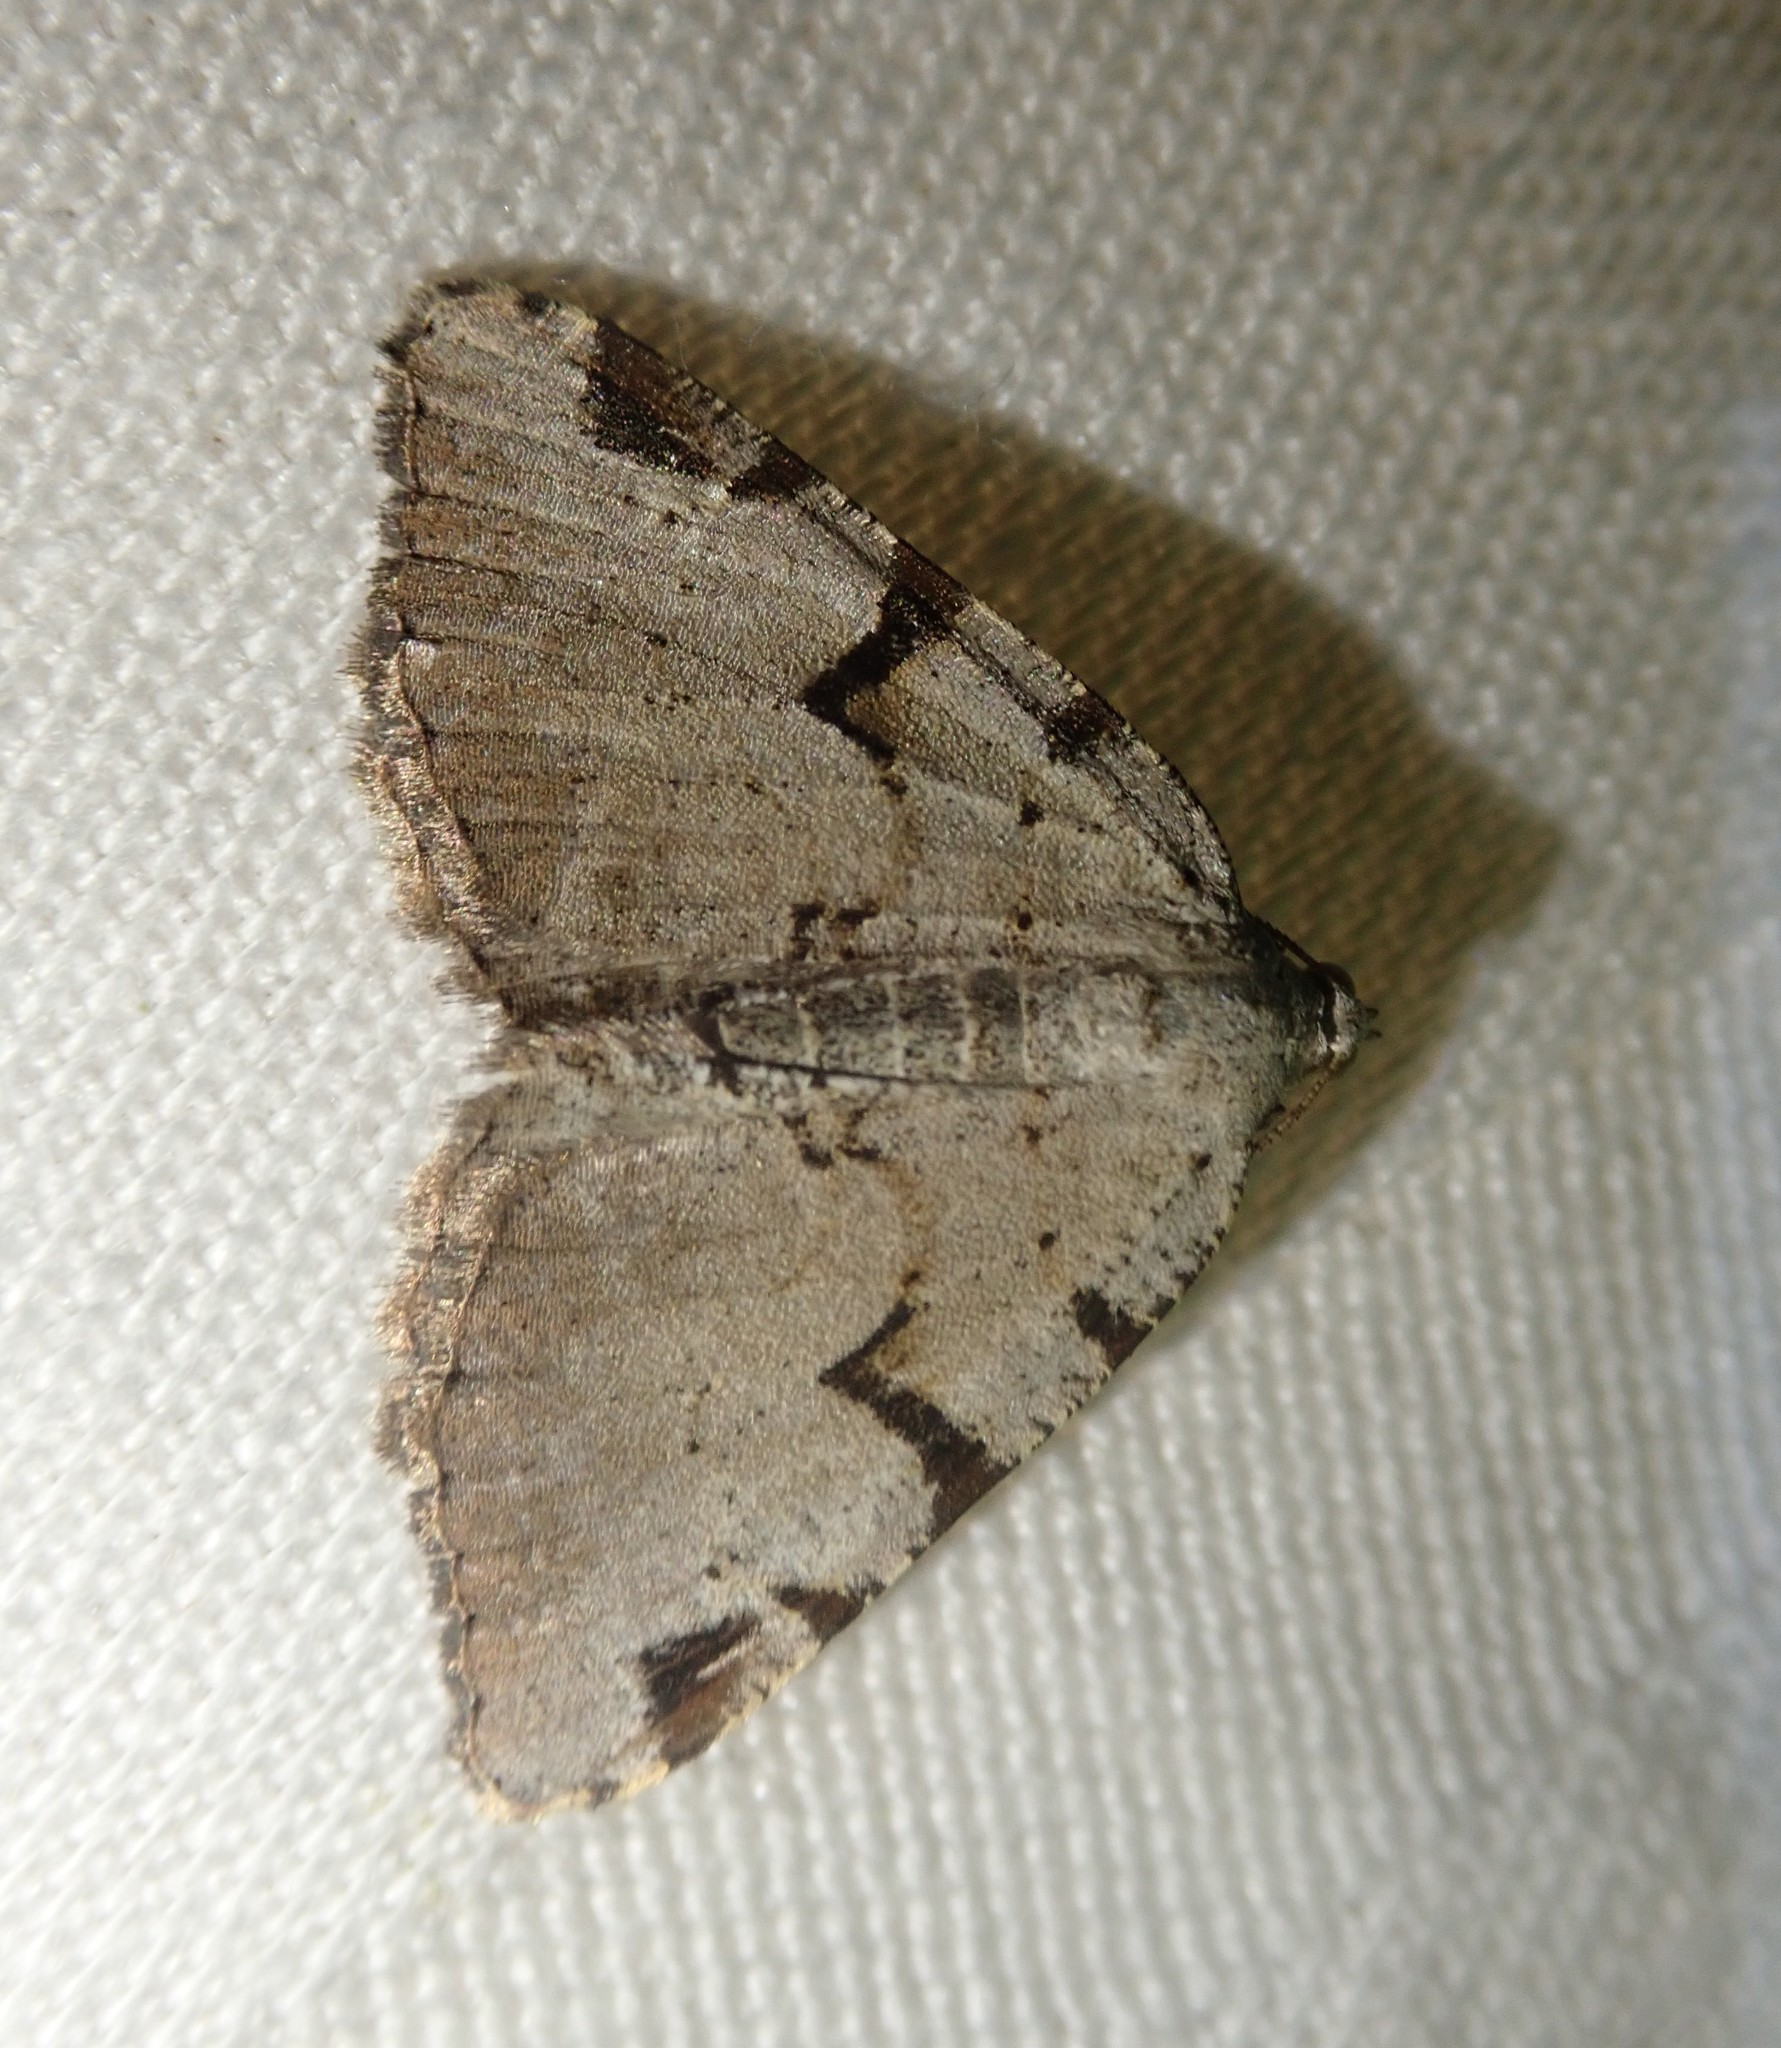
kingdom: Animalia
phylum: Arthropoda
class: Insecta
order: Lepidoptera
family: Geometridae
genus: Macaria
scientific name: Macaria wauaria
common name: V-moth
